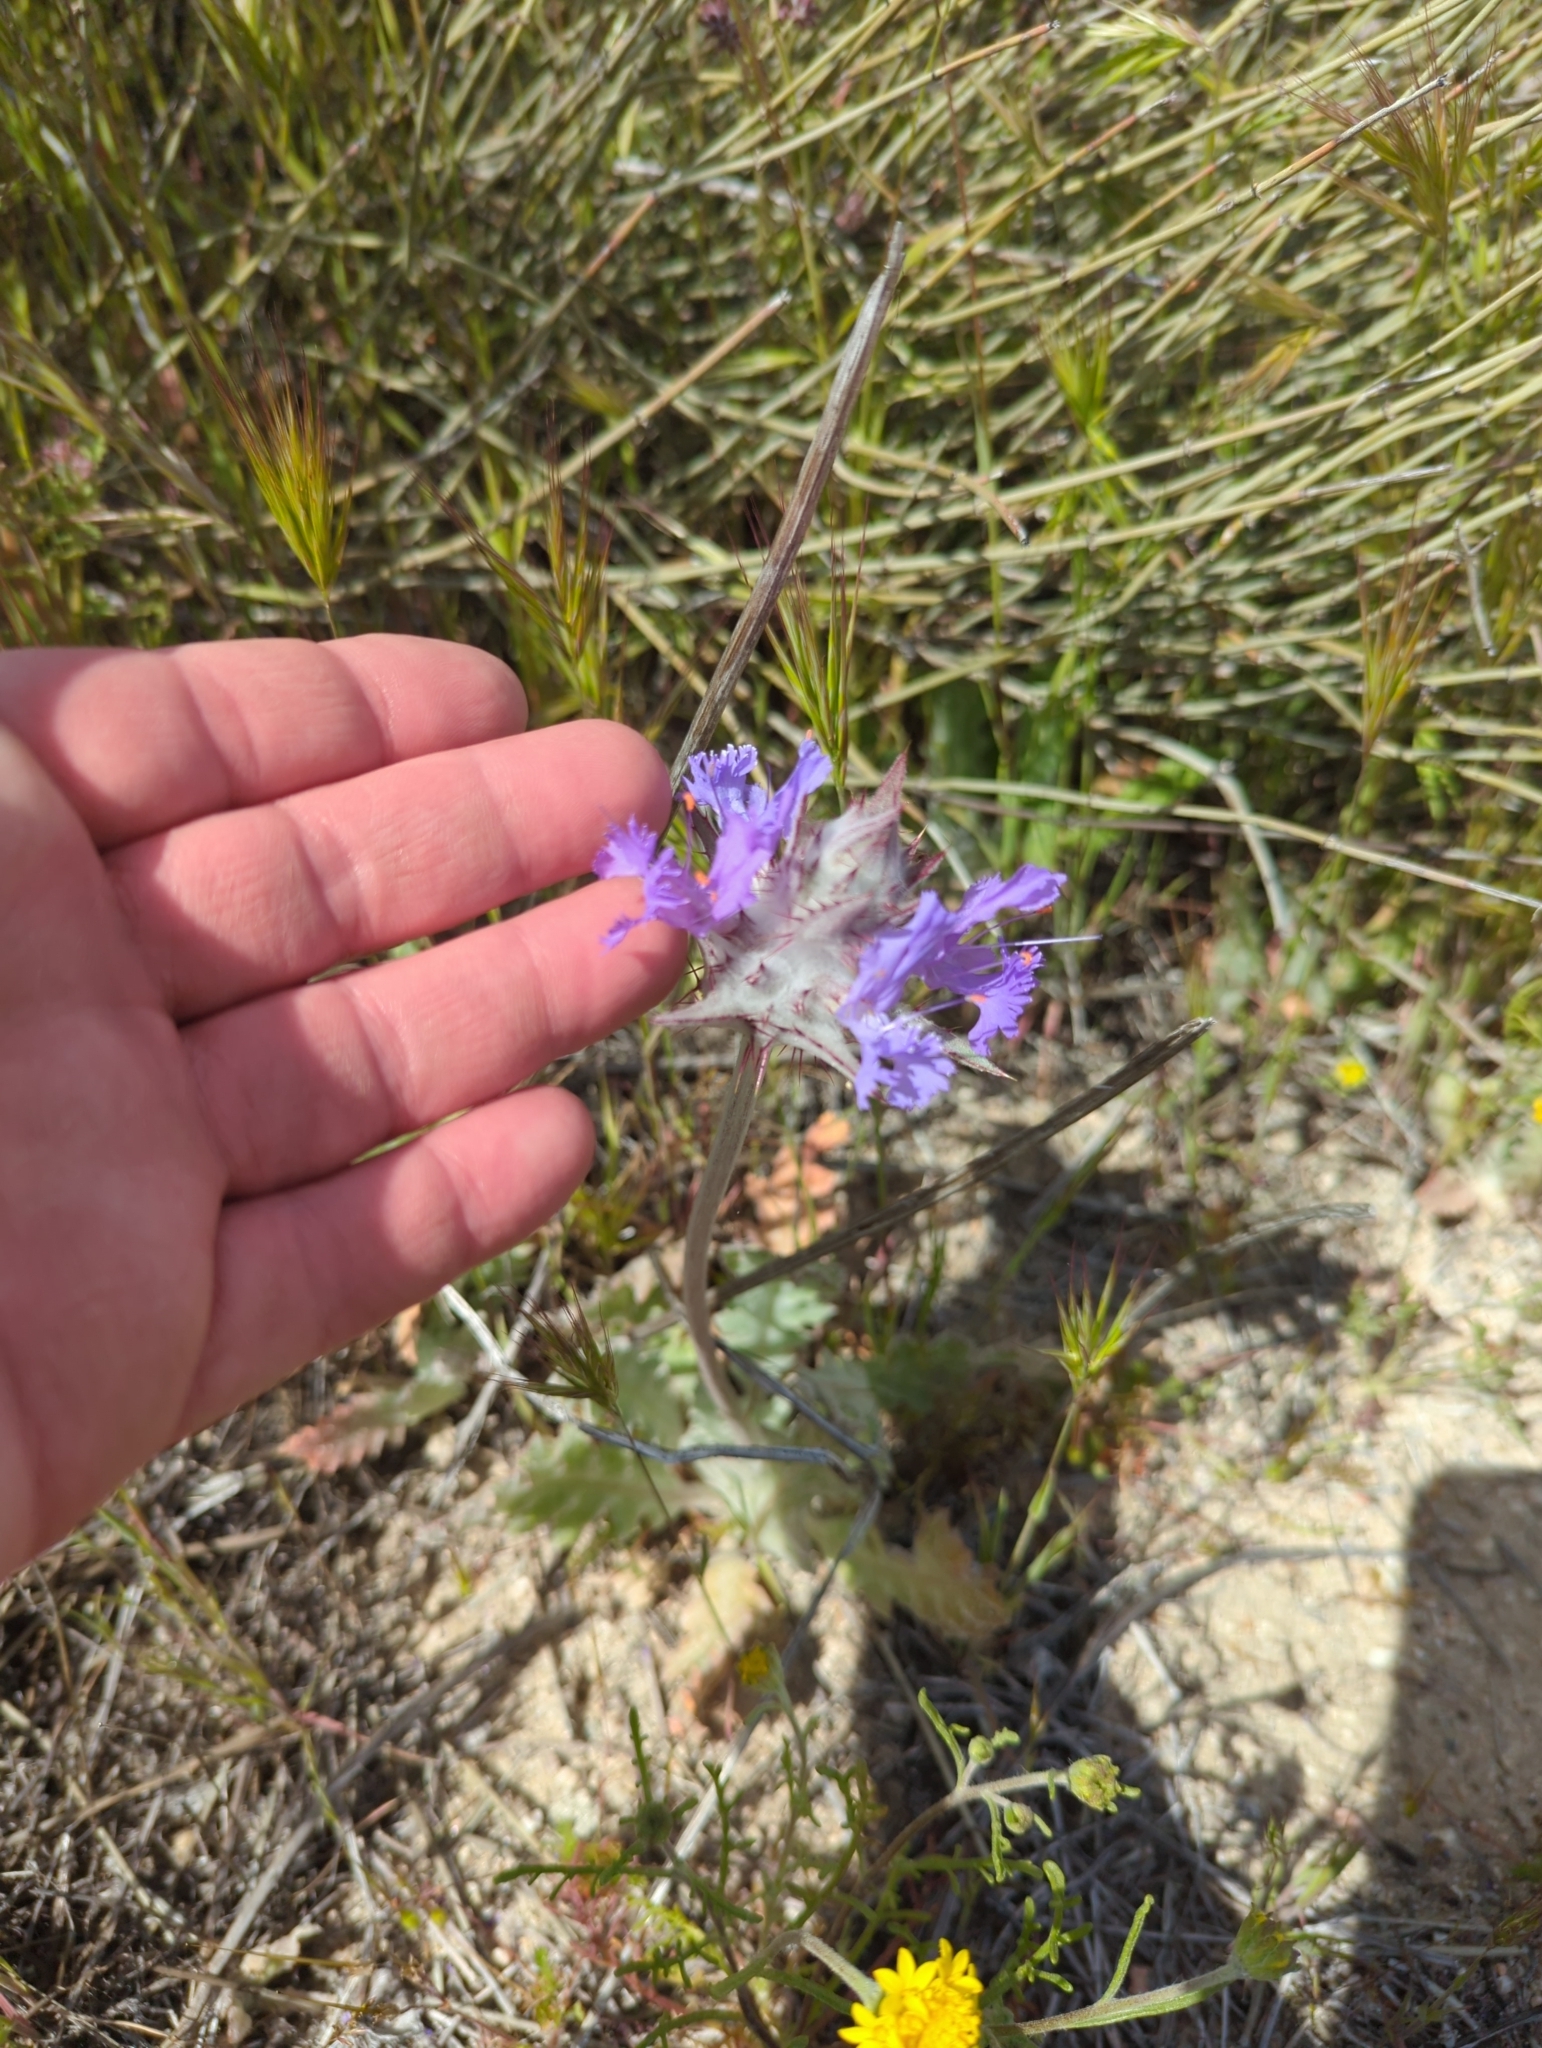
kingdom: Plantae
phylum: Tracheophyta
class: Magnoliopsida
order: Lamiales
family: Lamiaceae
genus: Salvia
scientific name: Salvia carduacea
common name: Thistle sage
